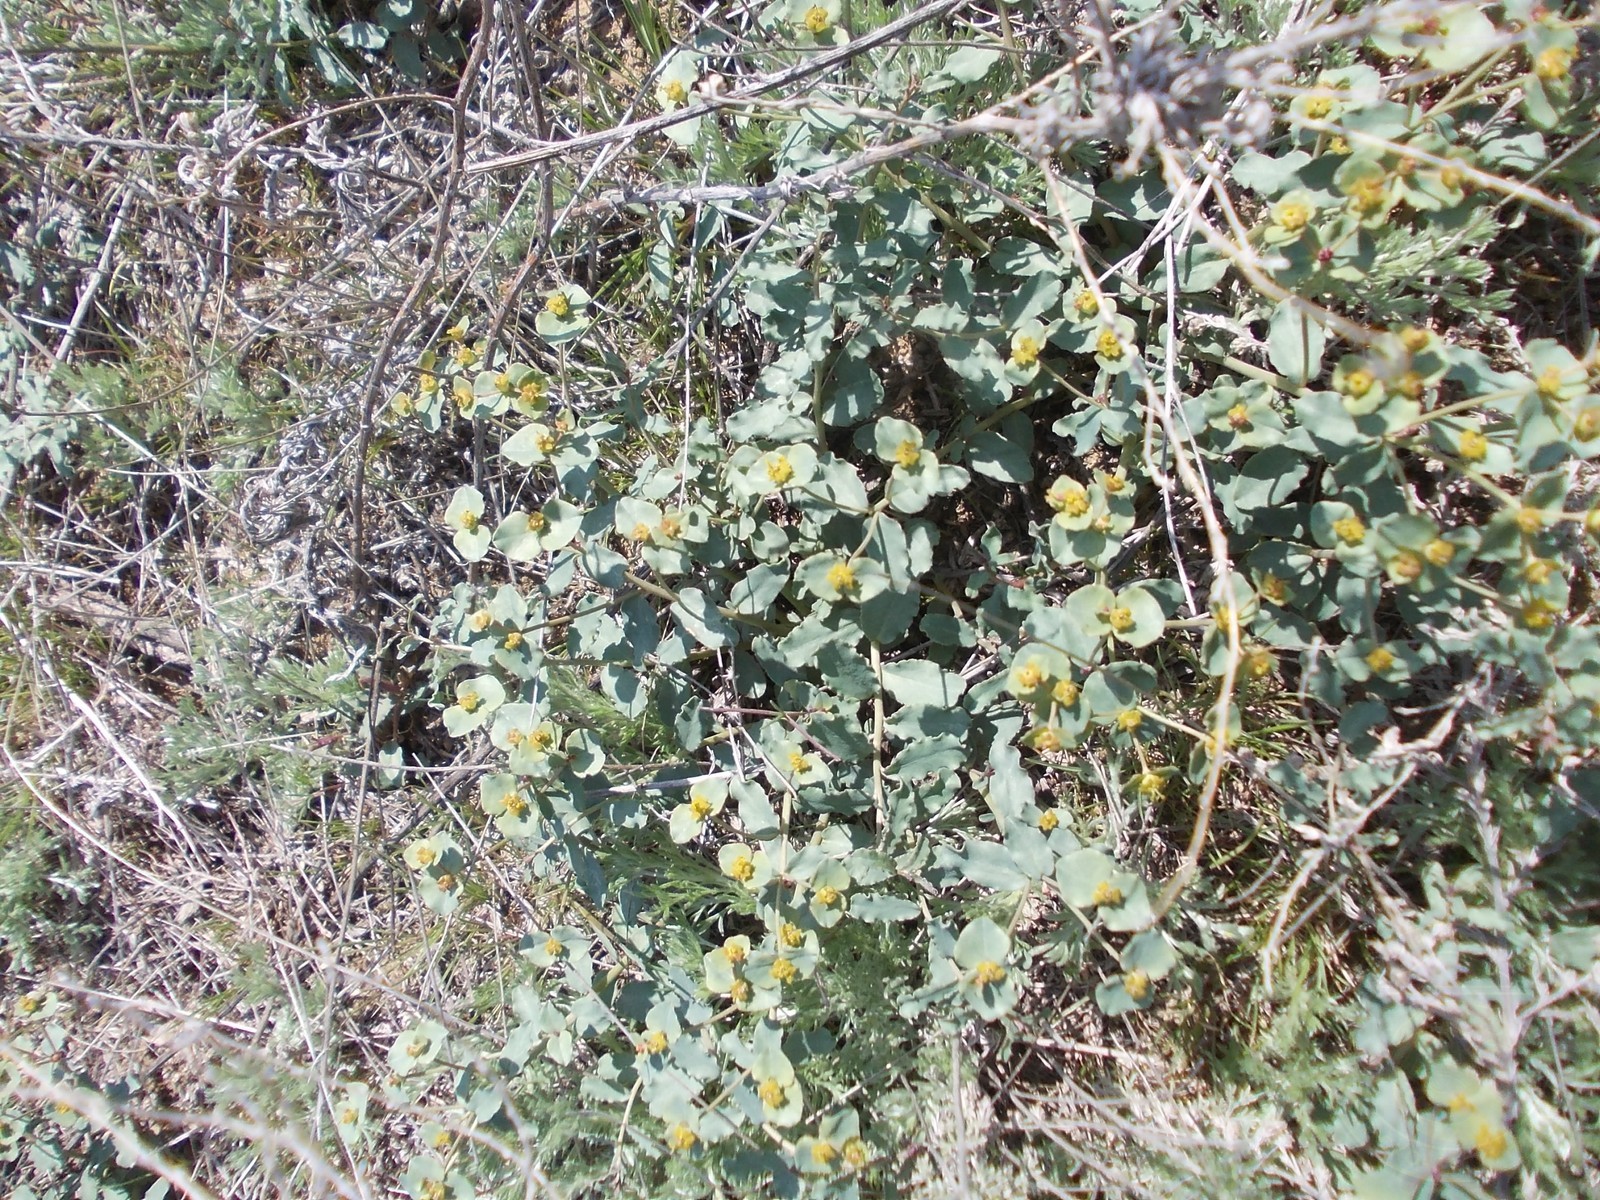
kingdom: Plantae
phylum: Tracheophyta
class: Magnoliopsida
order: Malpighiales
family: Euphorbiaceae
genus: Euphorbia
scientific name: Euphorbia undulata
